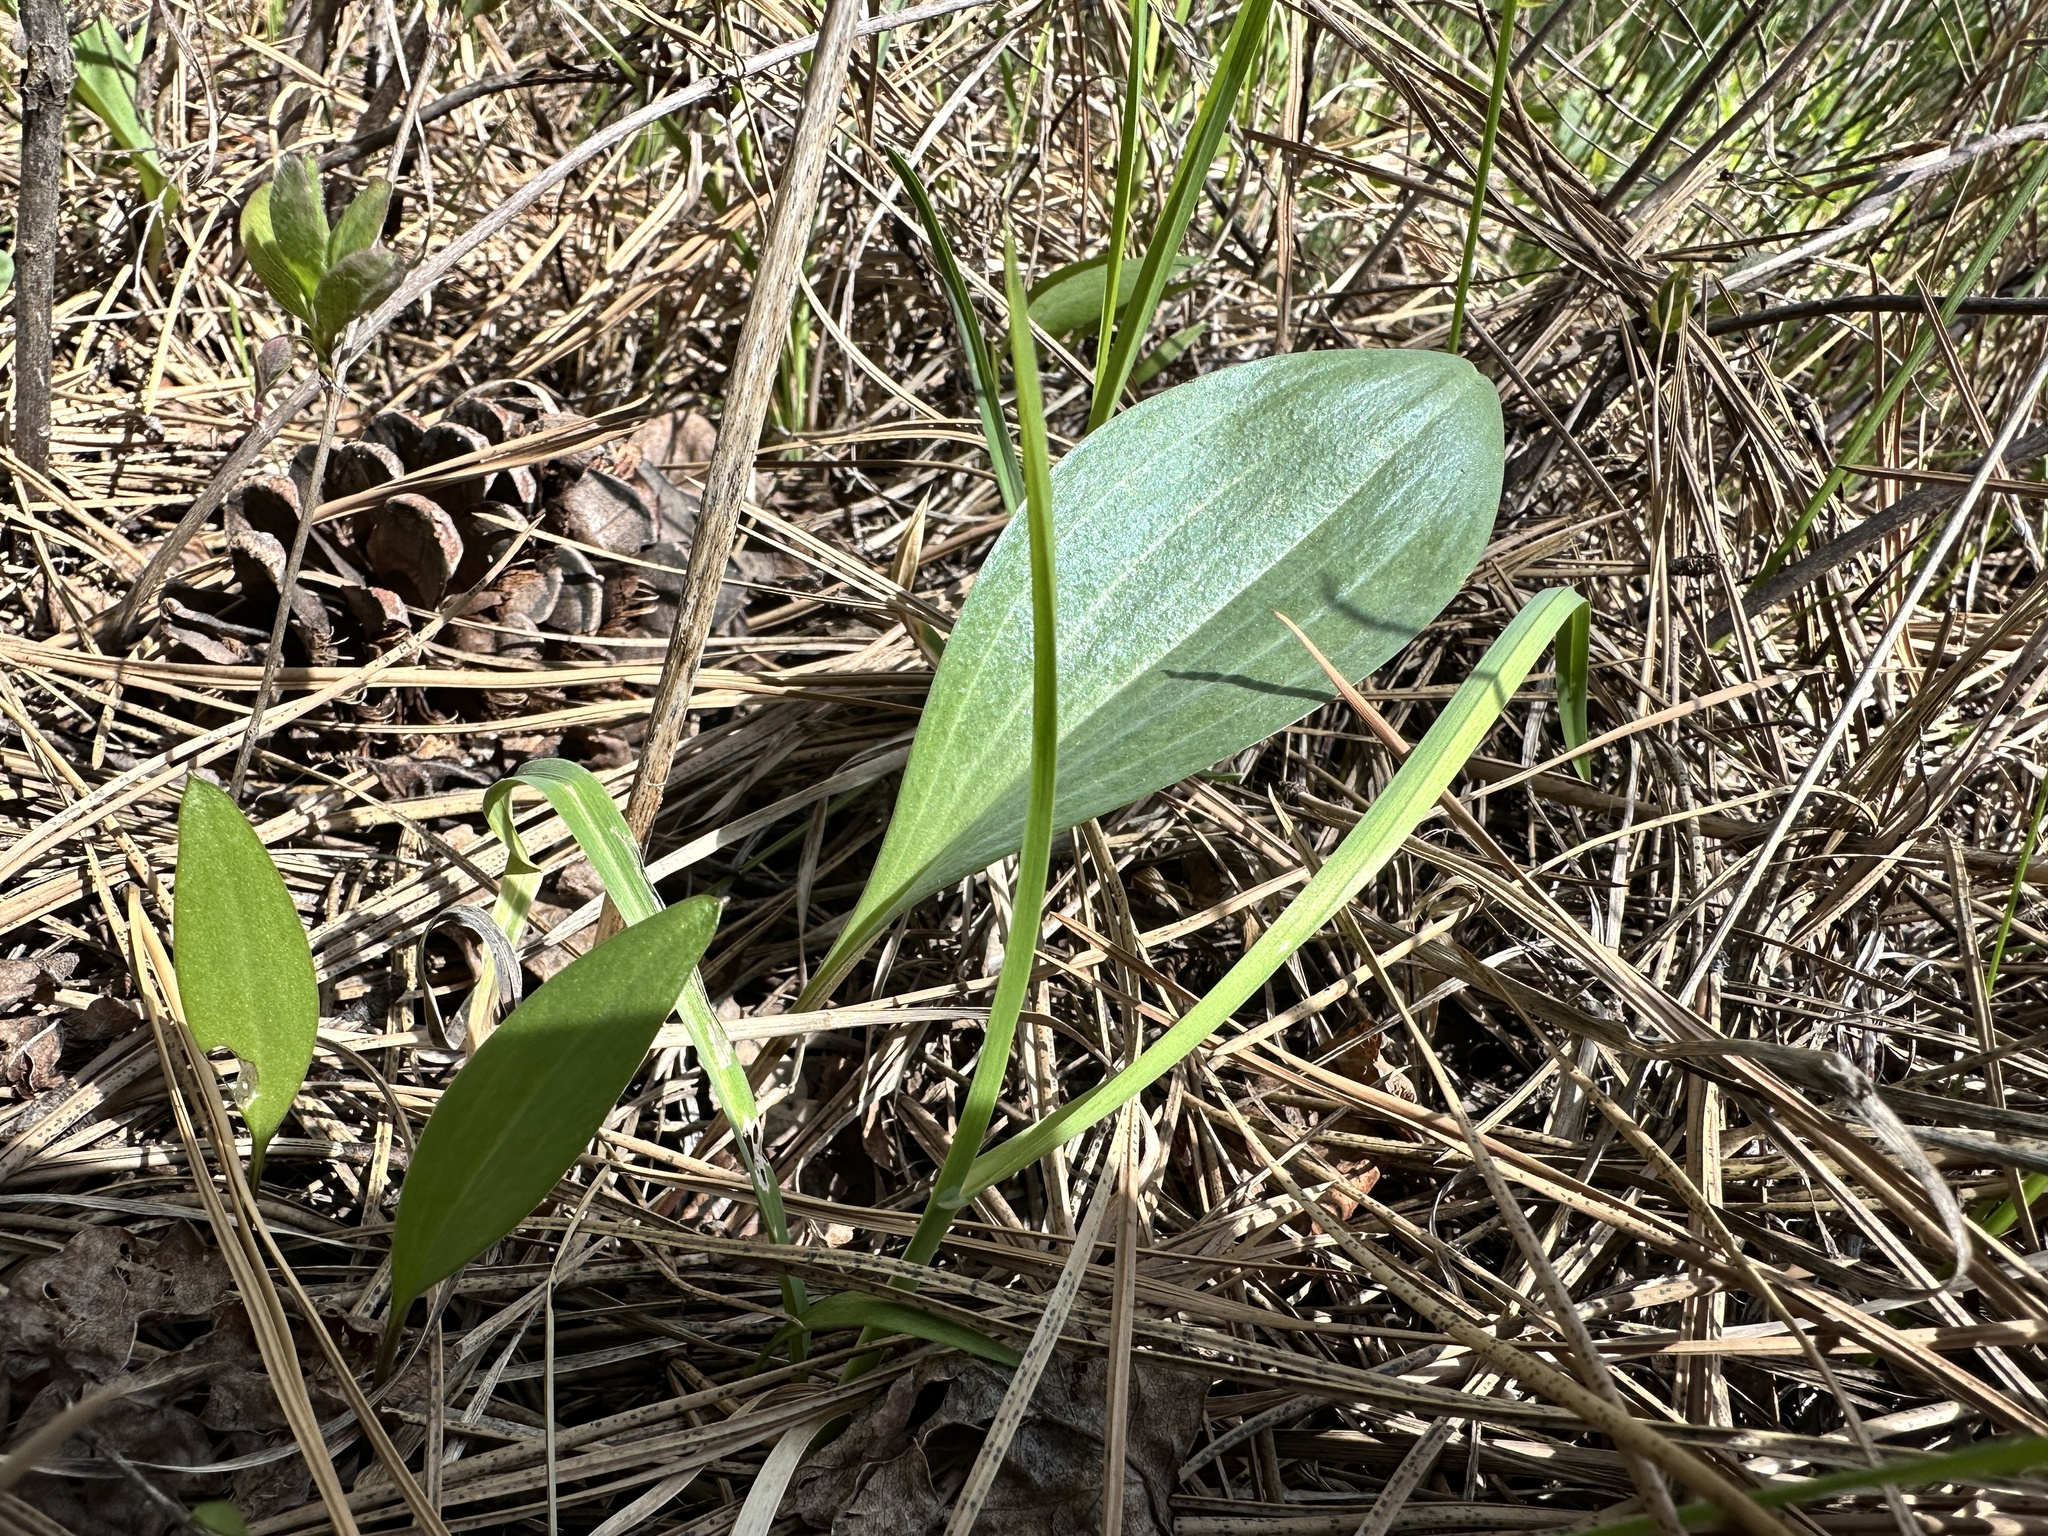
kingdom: Plantae
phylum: Tracheophyta
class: Liliopsida
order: Liliales
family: Liliaceae
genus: Fritillaria
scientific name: Fritillaria affinis
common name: Ojai fritillary
